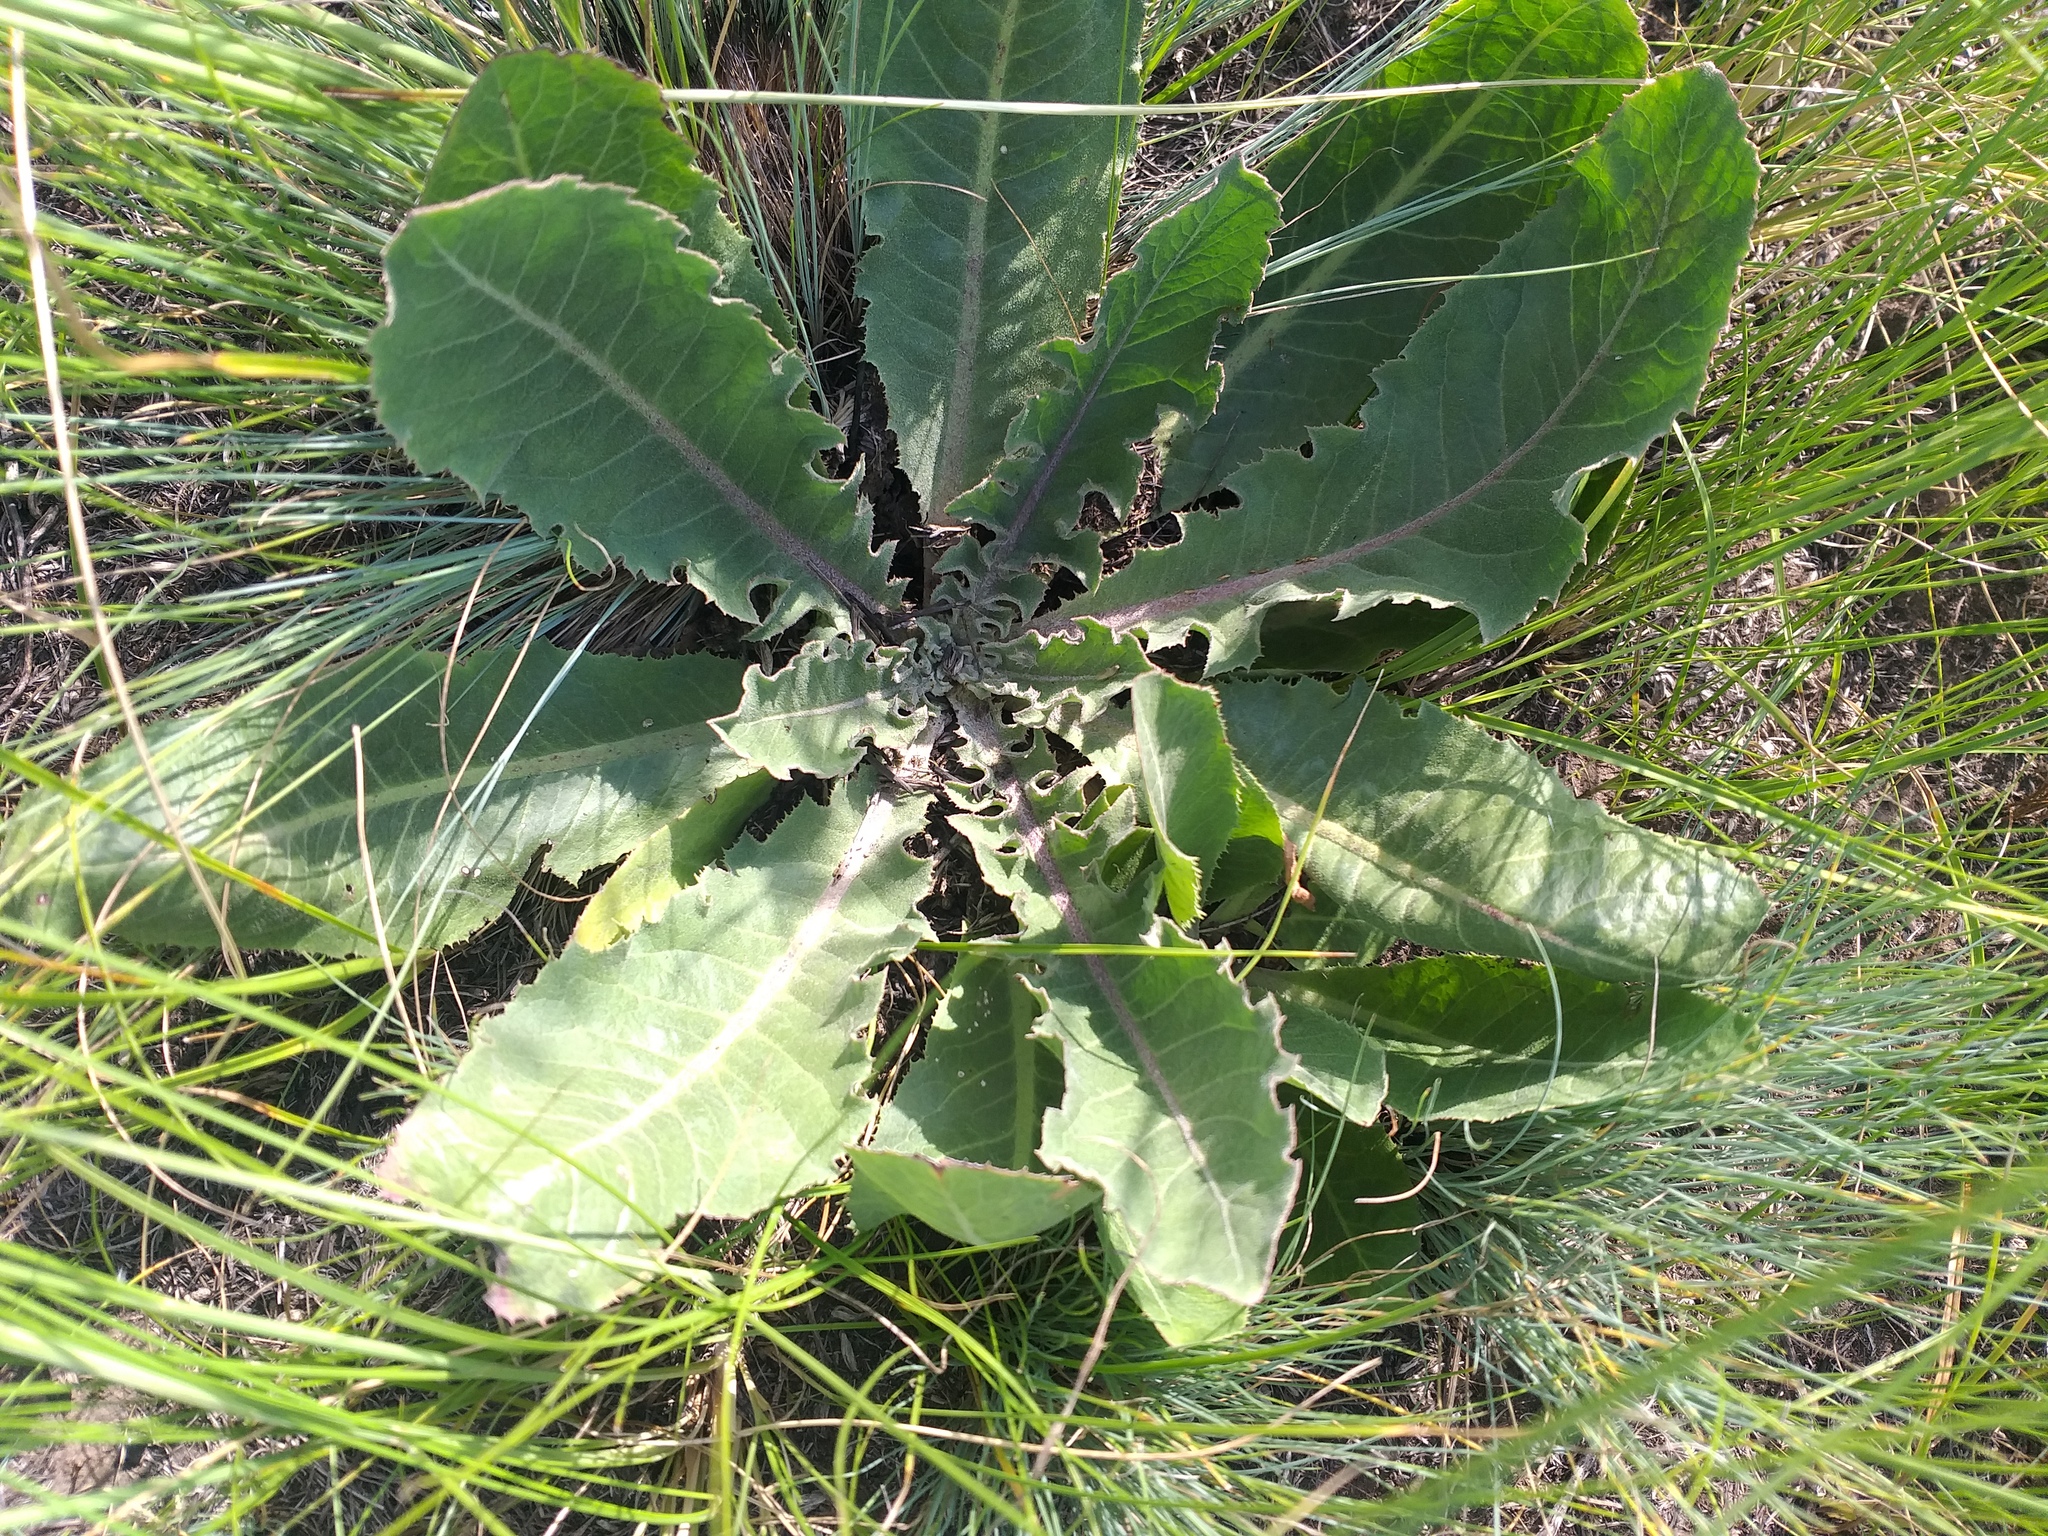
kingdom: Plantae
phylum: Tracheophyta
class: Magnoliopsida
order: Asterales
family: Asteraceae
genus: Taraxacum
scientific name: Taraxacum serotinum
